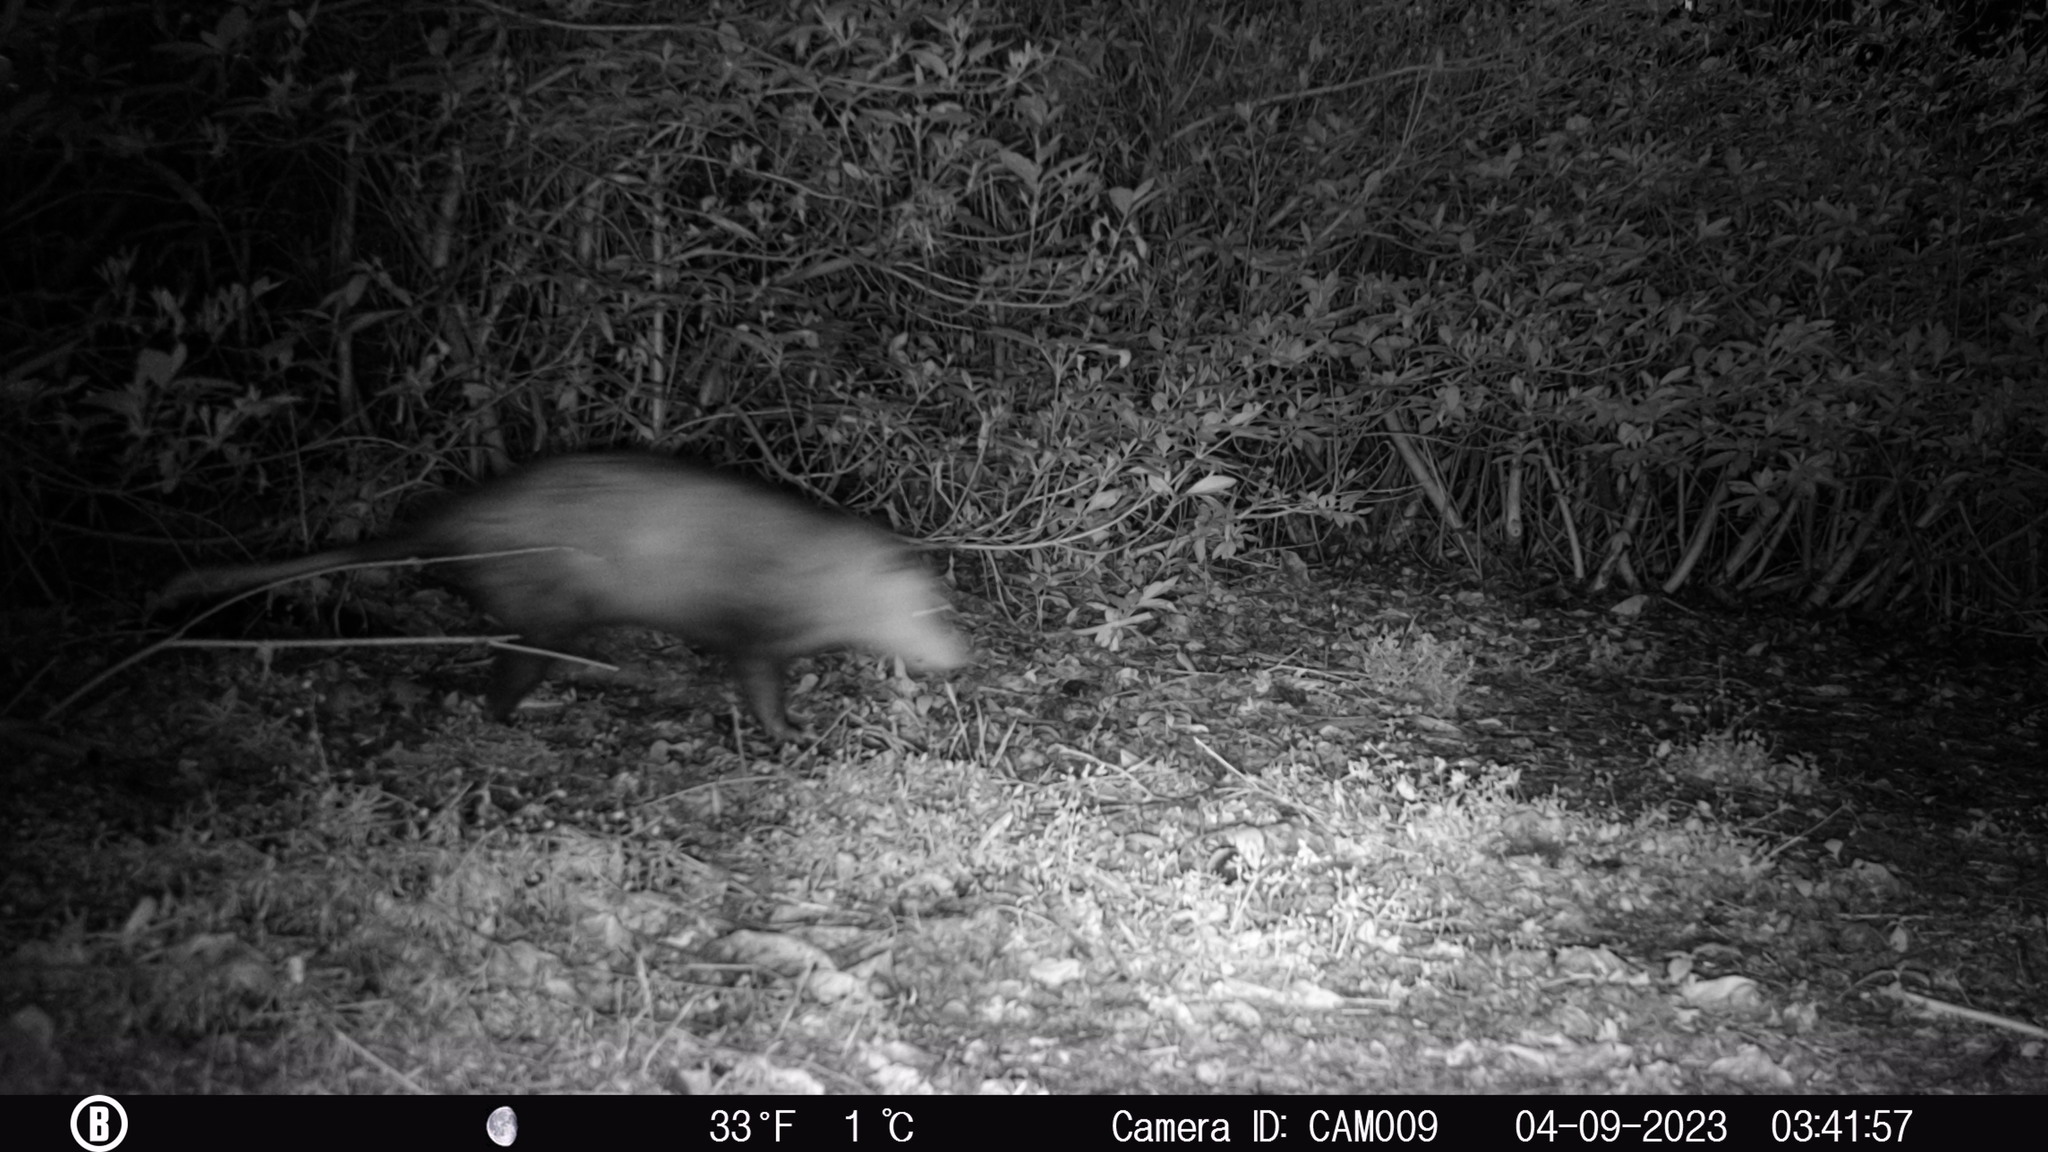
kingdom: Animalia
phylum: Chordata
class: Mammalia
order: Didelphimorphia
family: Didelphidae
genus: Didelphis
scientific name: Didelphis virginiana
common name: Virginia opossum
